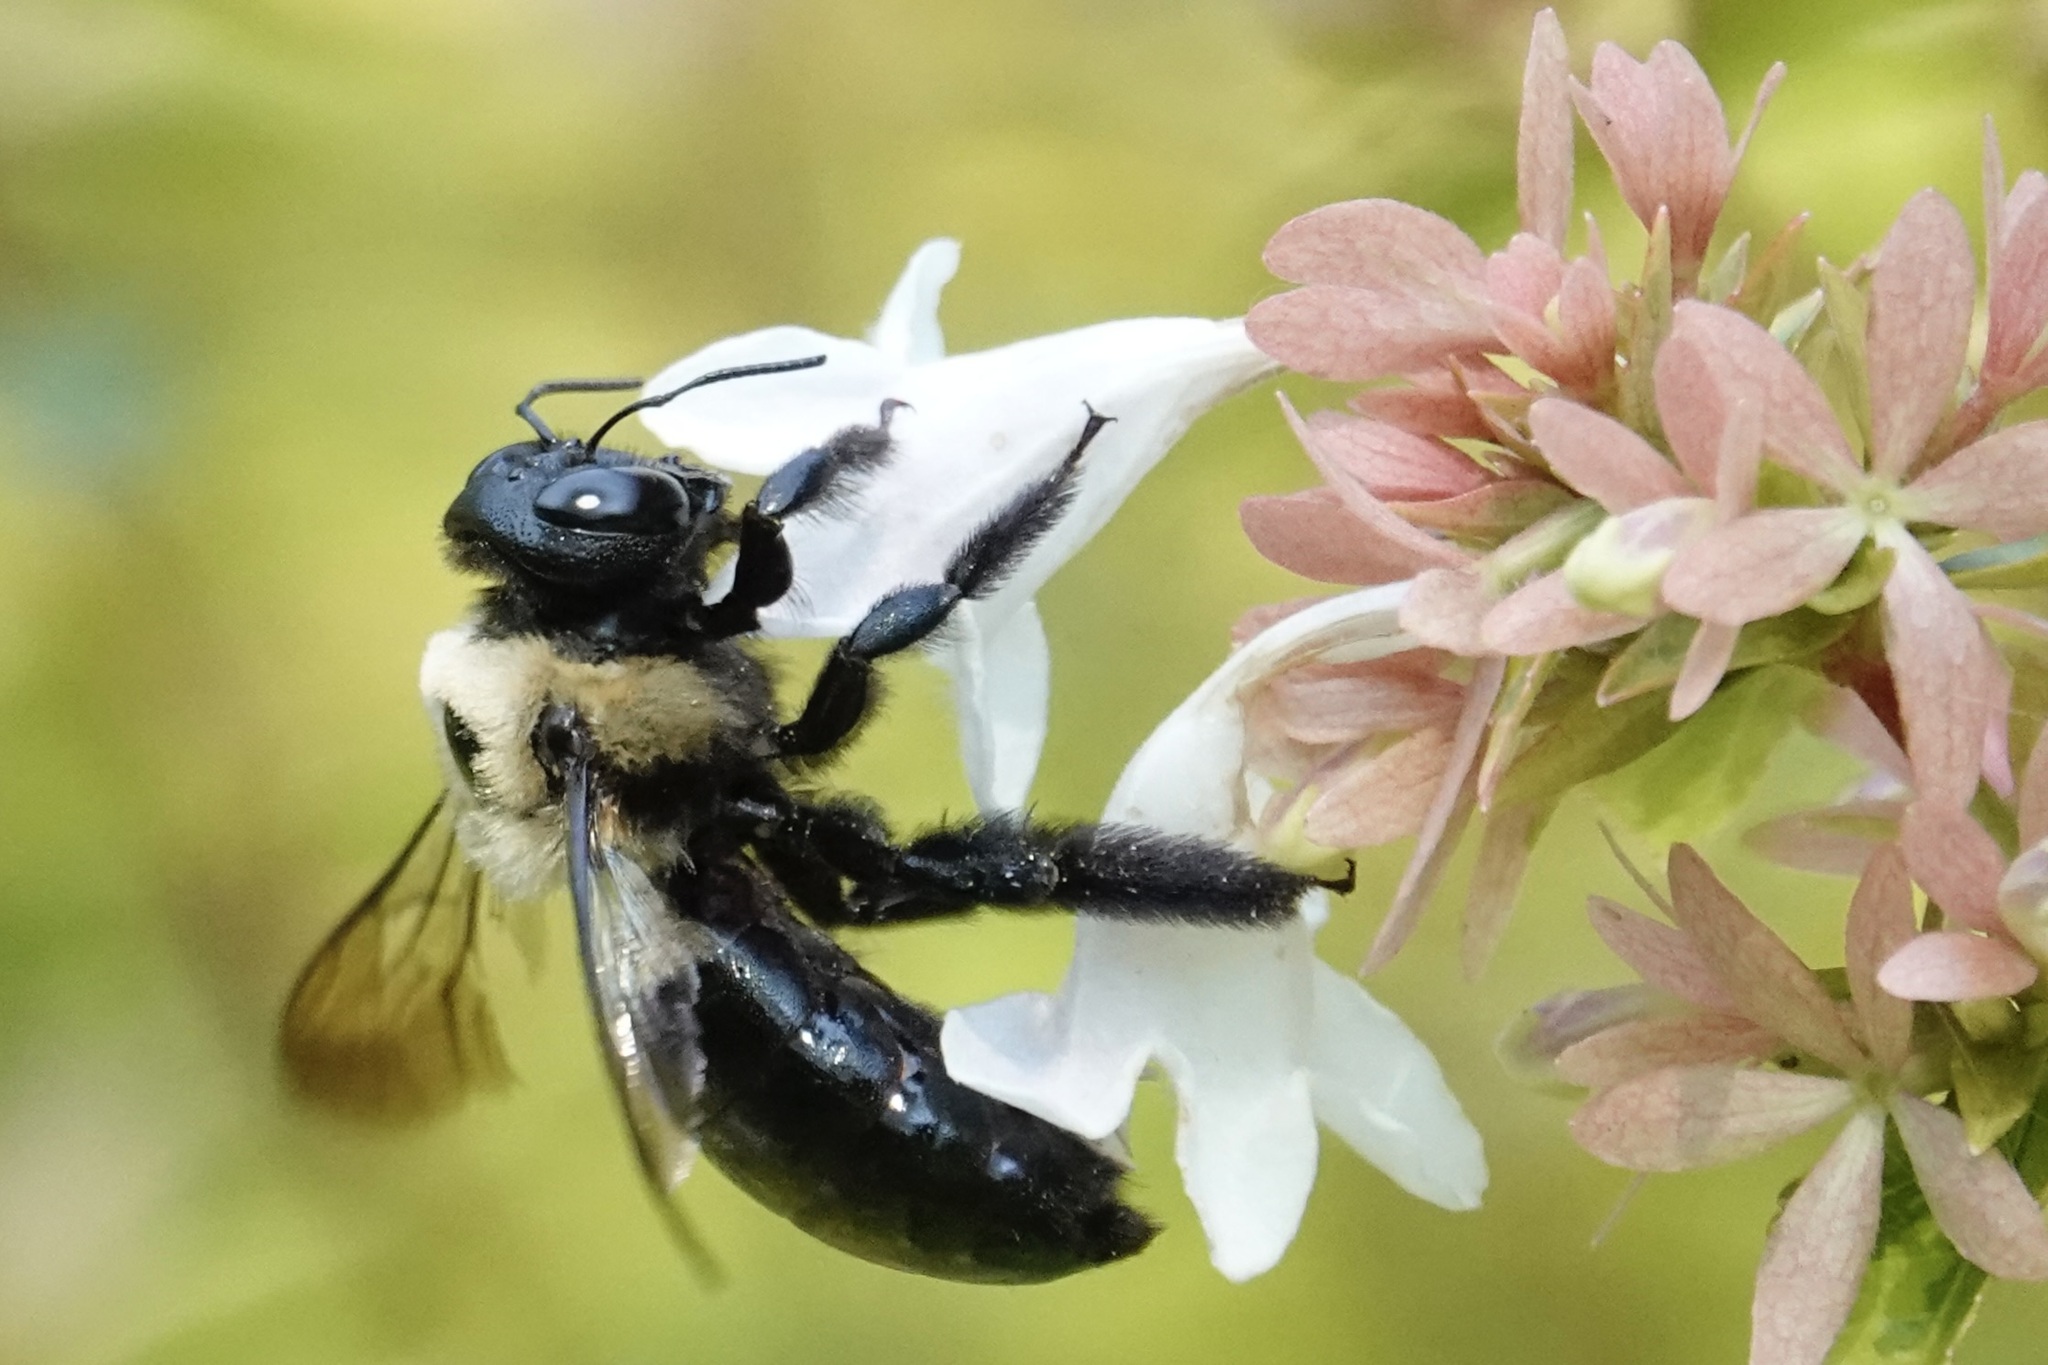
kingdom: Animalia
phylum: Arthropoda
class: Insecta
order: Hymenoptera
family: Apidae
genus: Xylocopa
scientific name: Xylocopa virginica
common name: Carpenter bee
